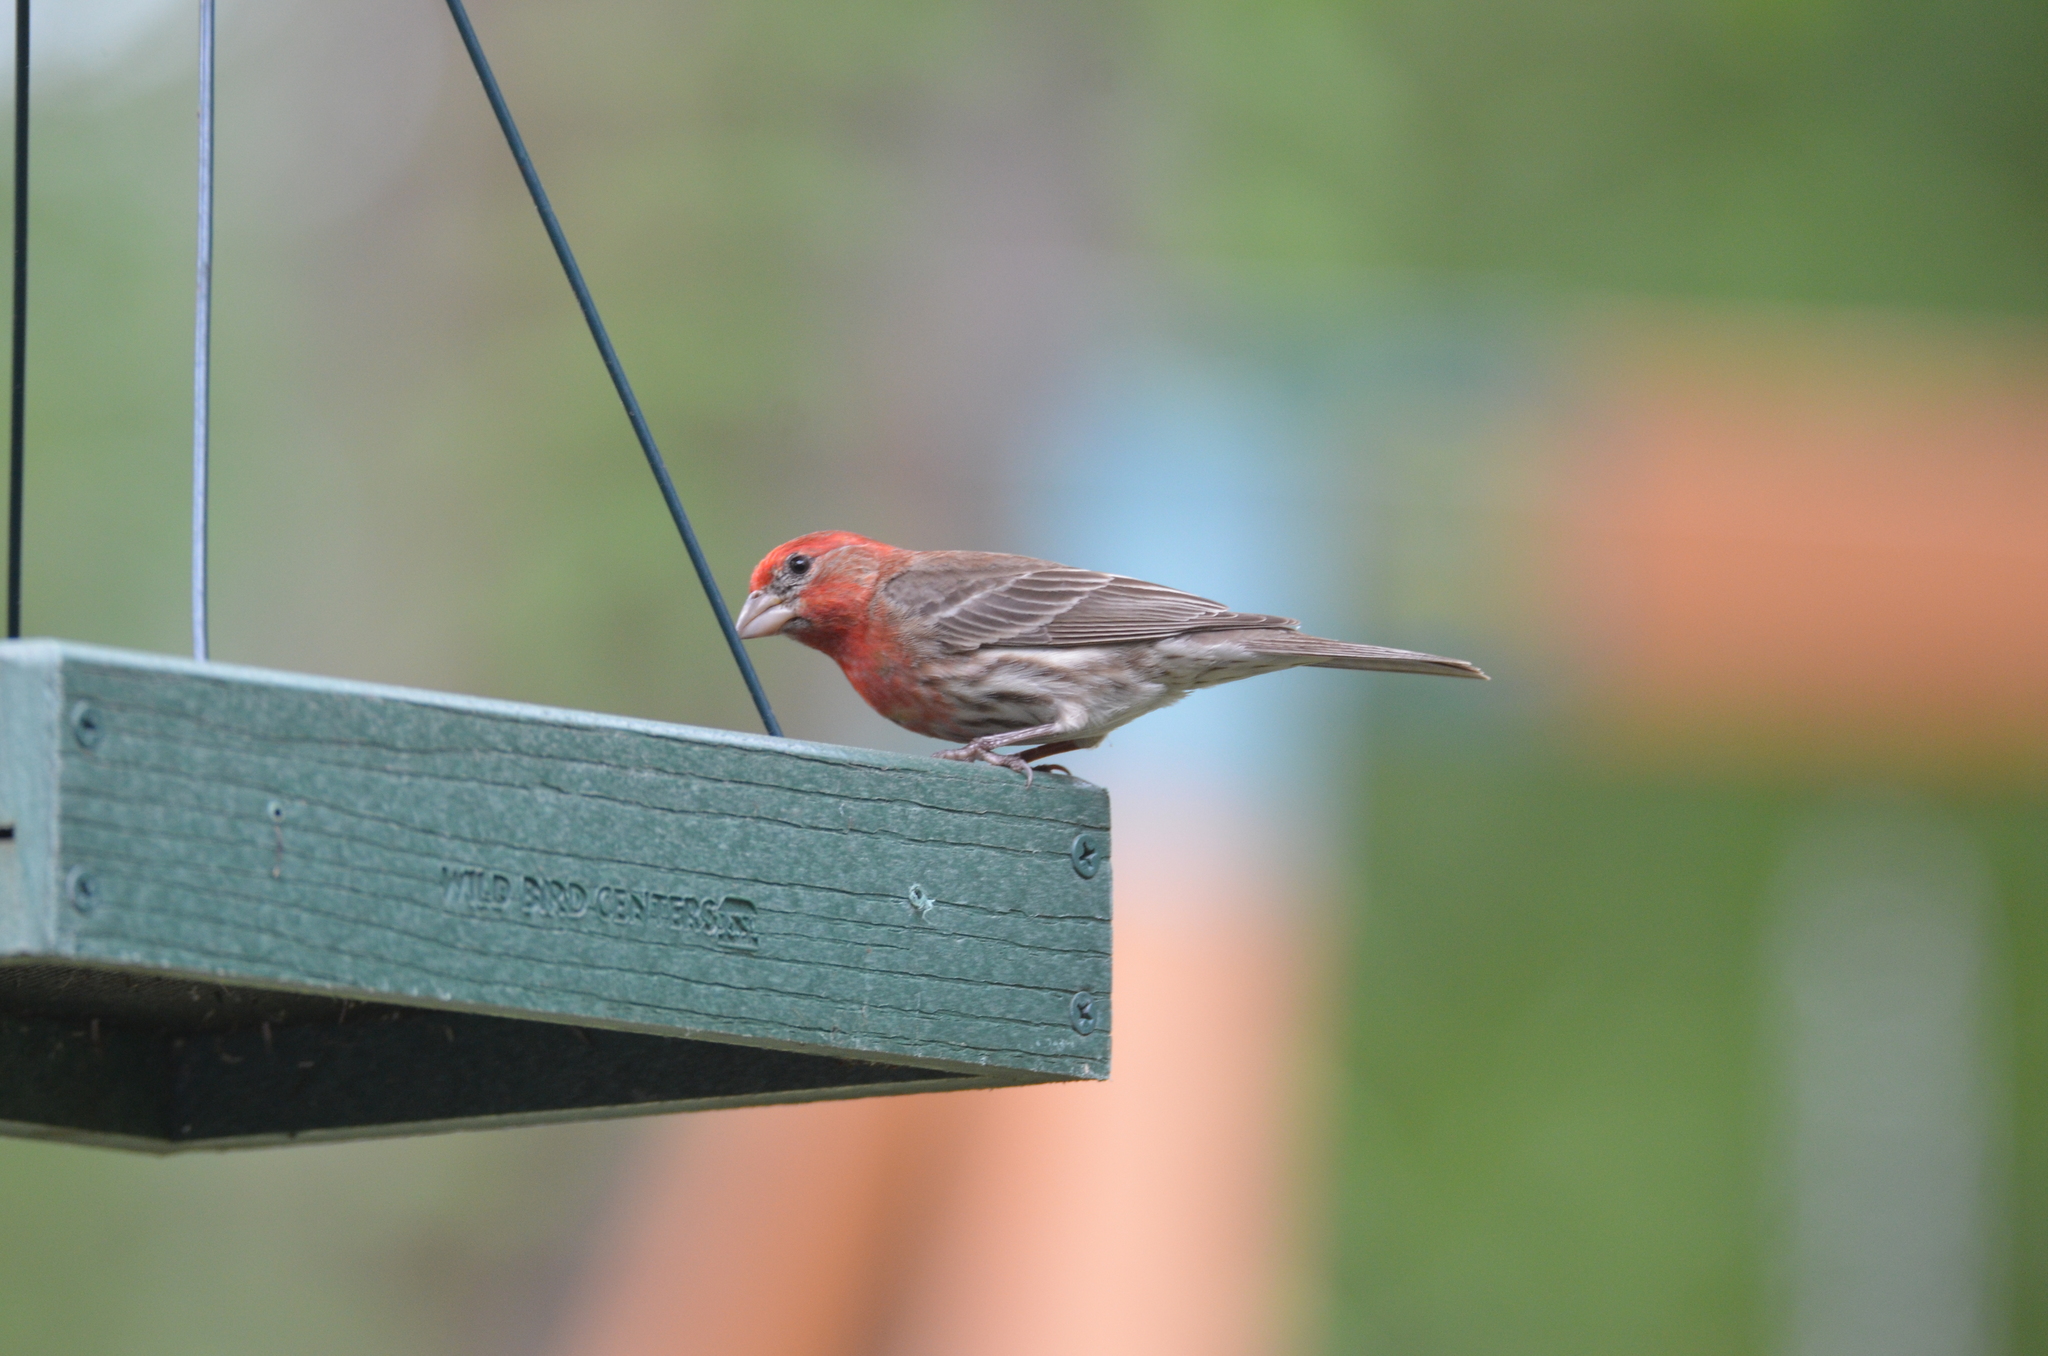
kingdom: Animalia
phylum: Chordata
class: Aves
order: Passeriformes
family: Fringillidae
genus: Haemorhous
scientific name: Haemorhous mexicanus
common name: House finch
